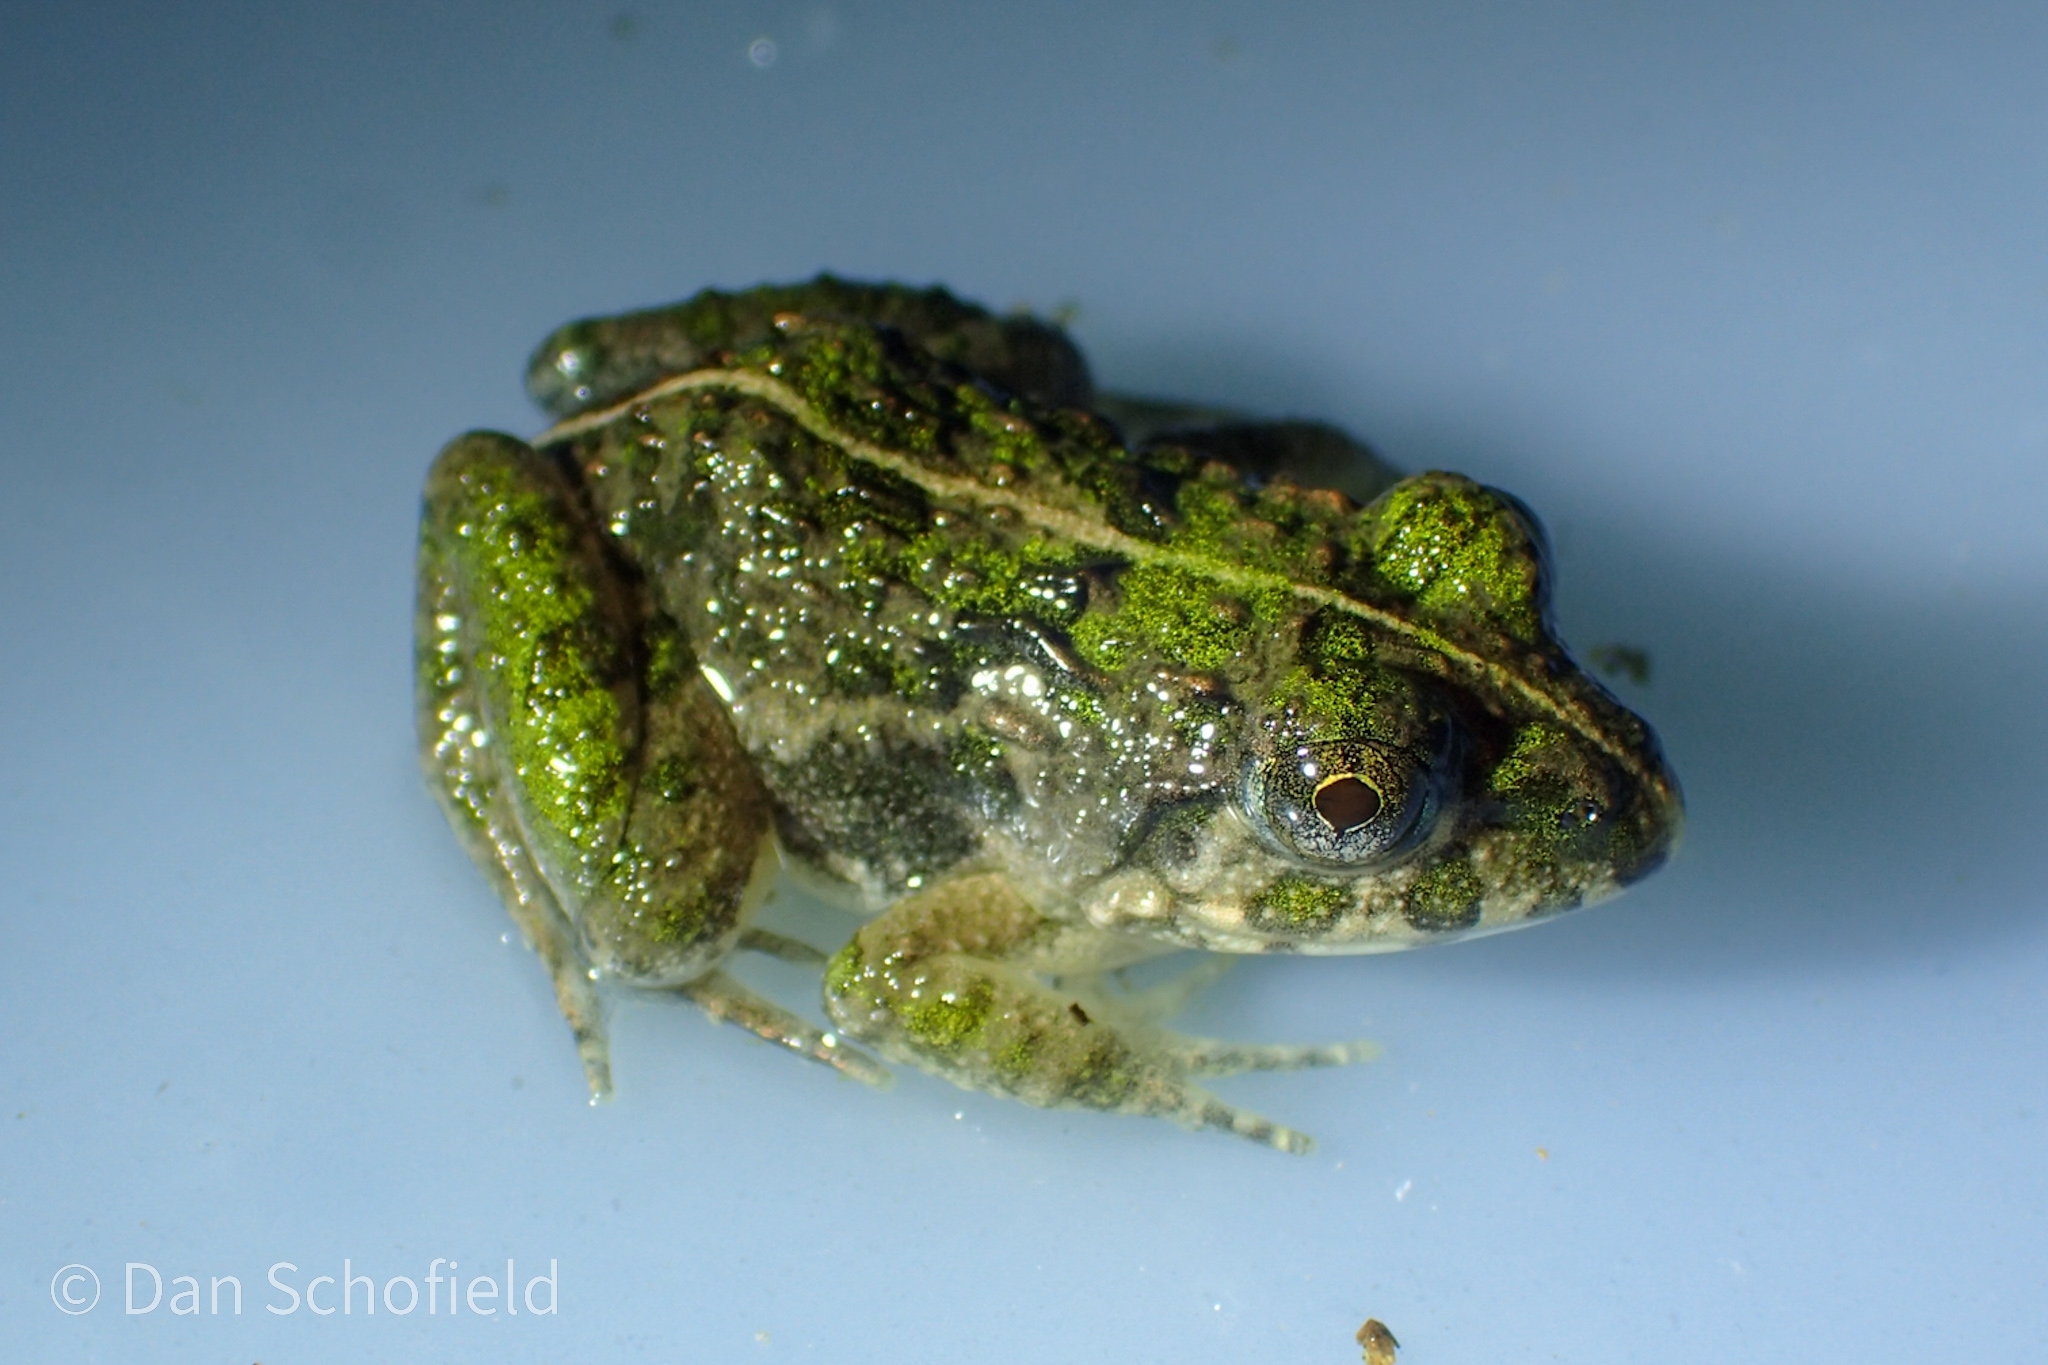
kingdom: Animalia
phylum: Chordata
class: Amphibia
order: Anura
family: Dicroglossidae
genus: Fejervarya
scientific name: Fejervarya limnocharis
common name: Asian grass frog/common pond frog/field frog/grass frog/indian rice frog
